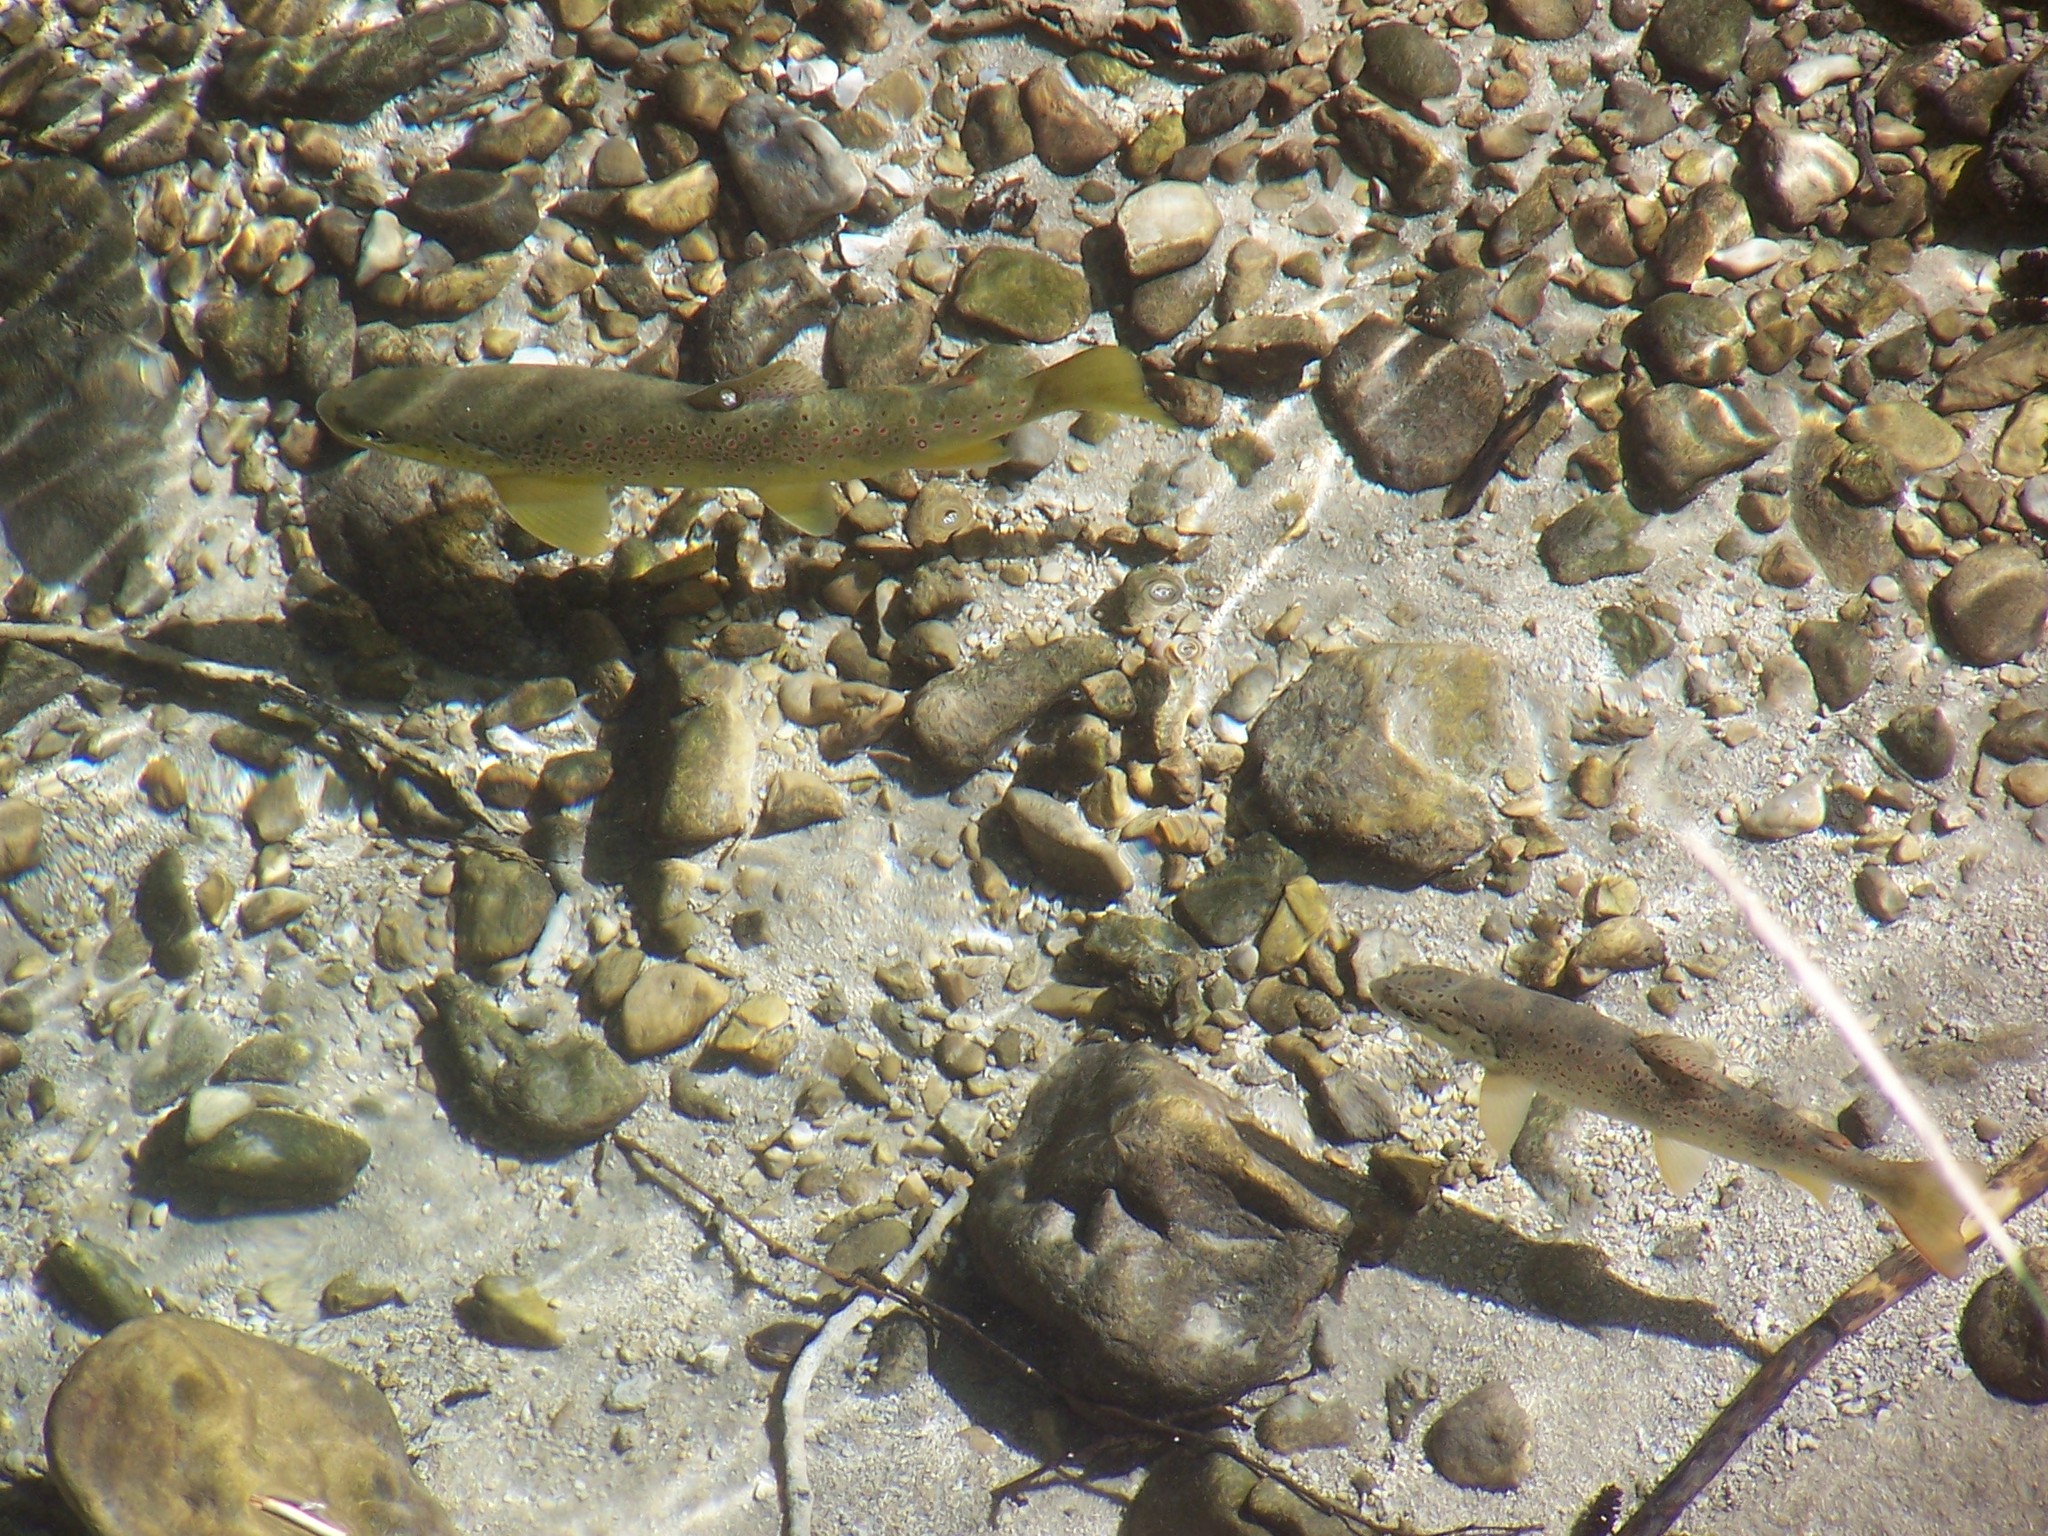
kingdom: Animalia
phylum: Chordata
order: Salmoniformes
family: Salmonidae
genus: Salmo
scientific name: Salmo trutta
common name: Brown trout
